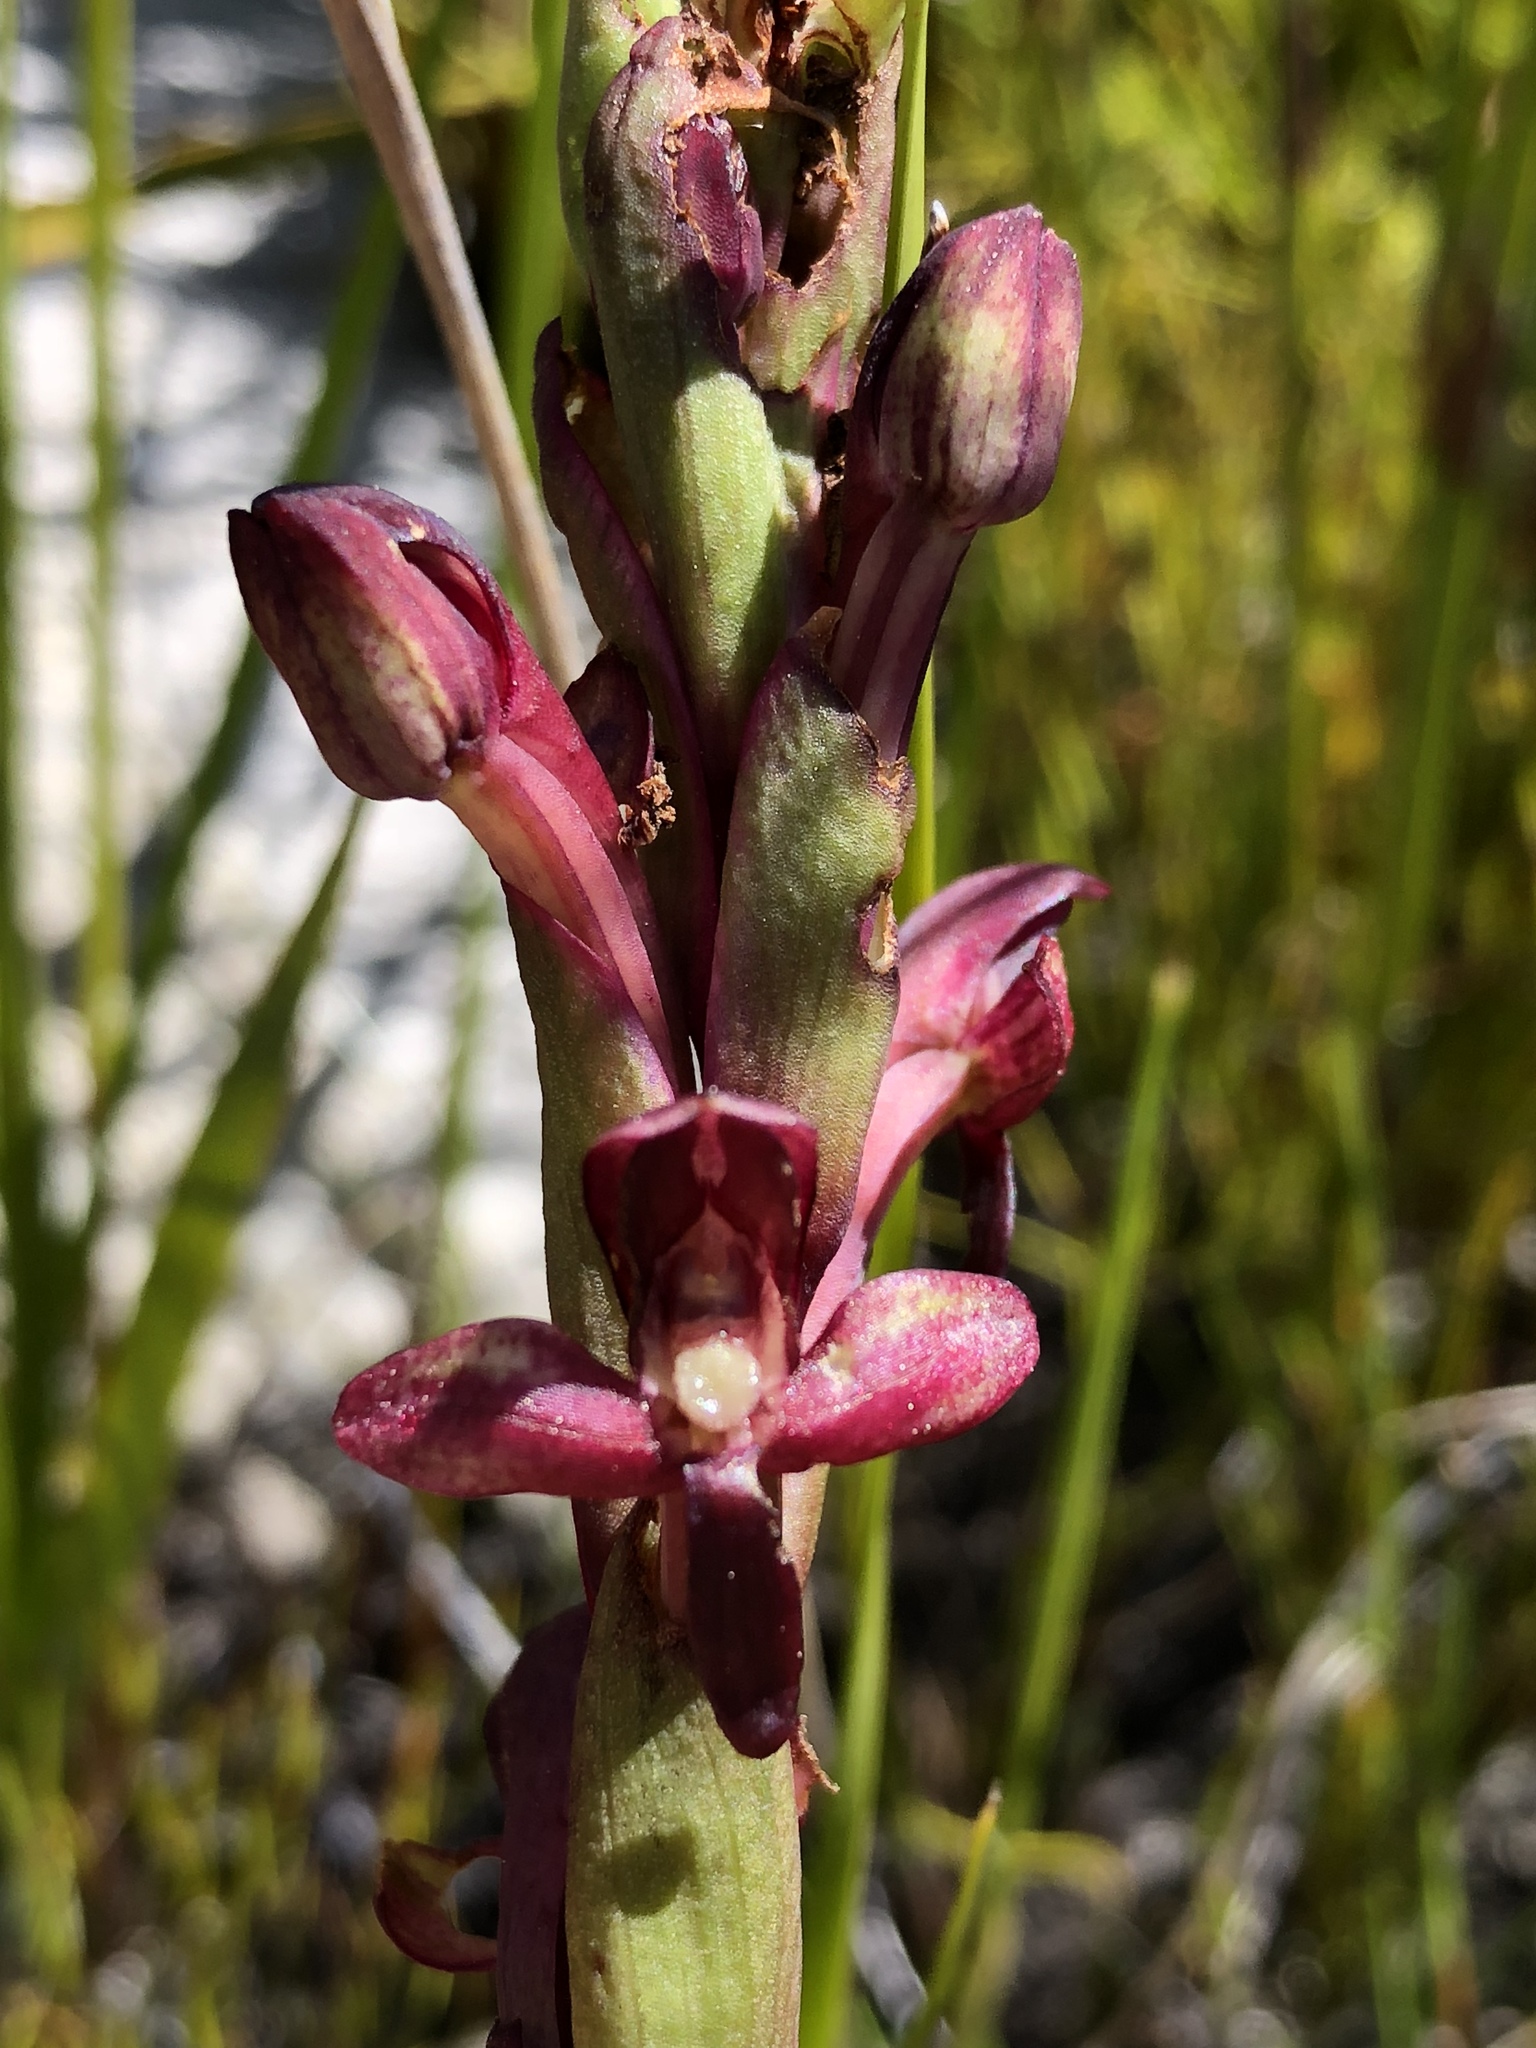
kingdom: Plantae
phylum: Tracheophyta
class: Liliopsida
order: Asparagales
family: Orchidaceae
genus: Disa
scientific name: Disa ophrydea
